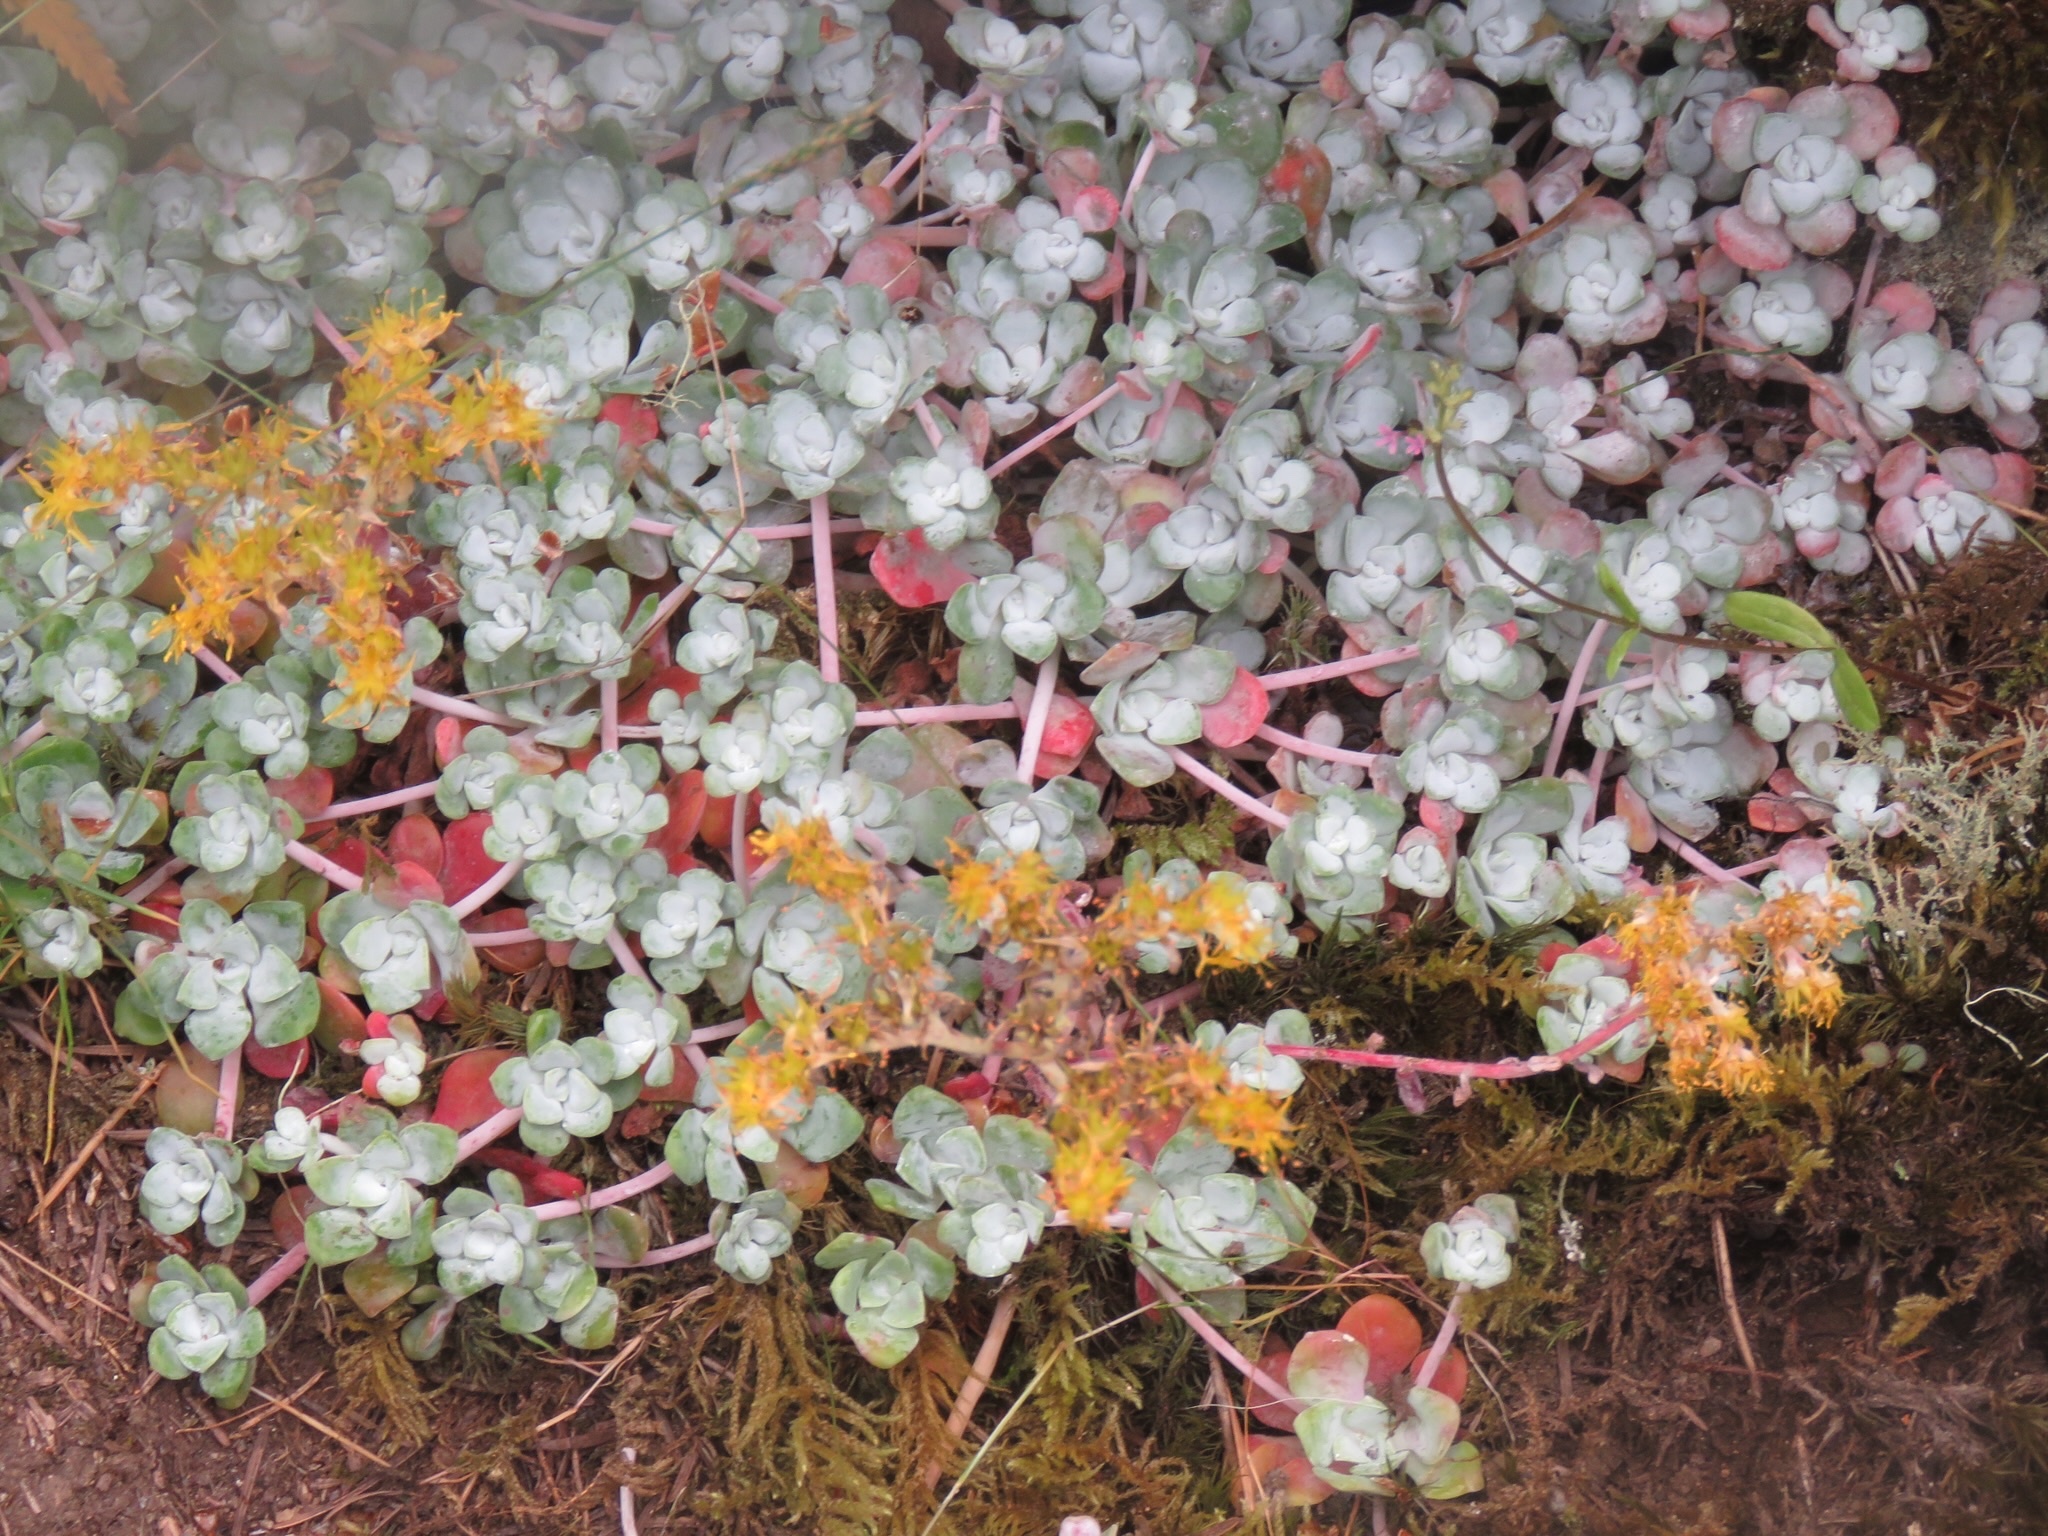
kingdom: Plantae
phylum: Tracheophyta
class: Magnoliopsida
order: Saxifragales
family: Crassulaceae
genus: Sedum
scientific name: Sedum spathulifolium
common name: Colorado stonecrop
